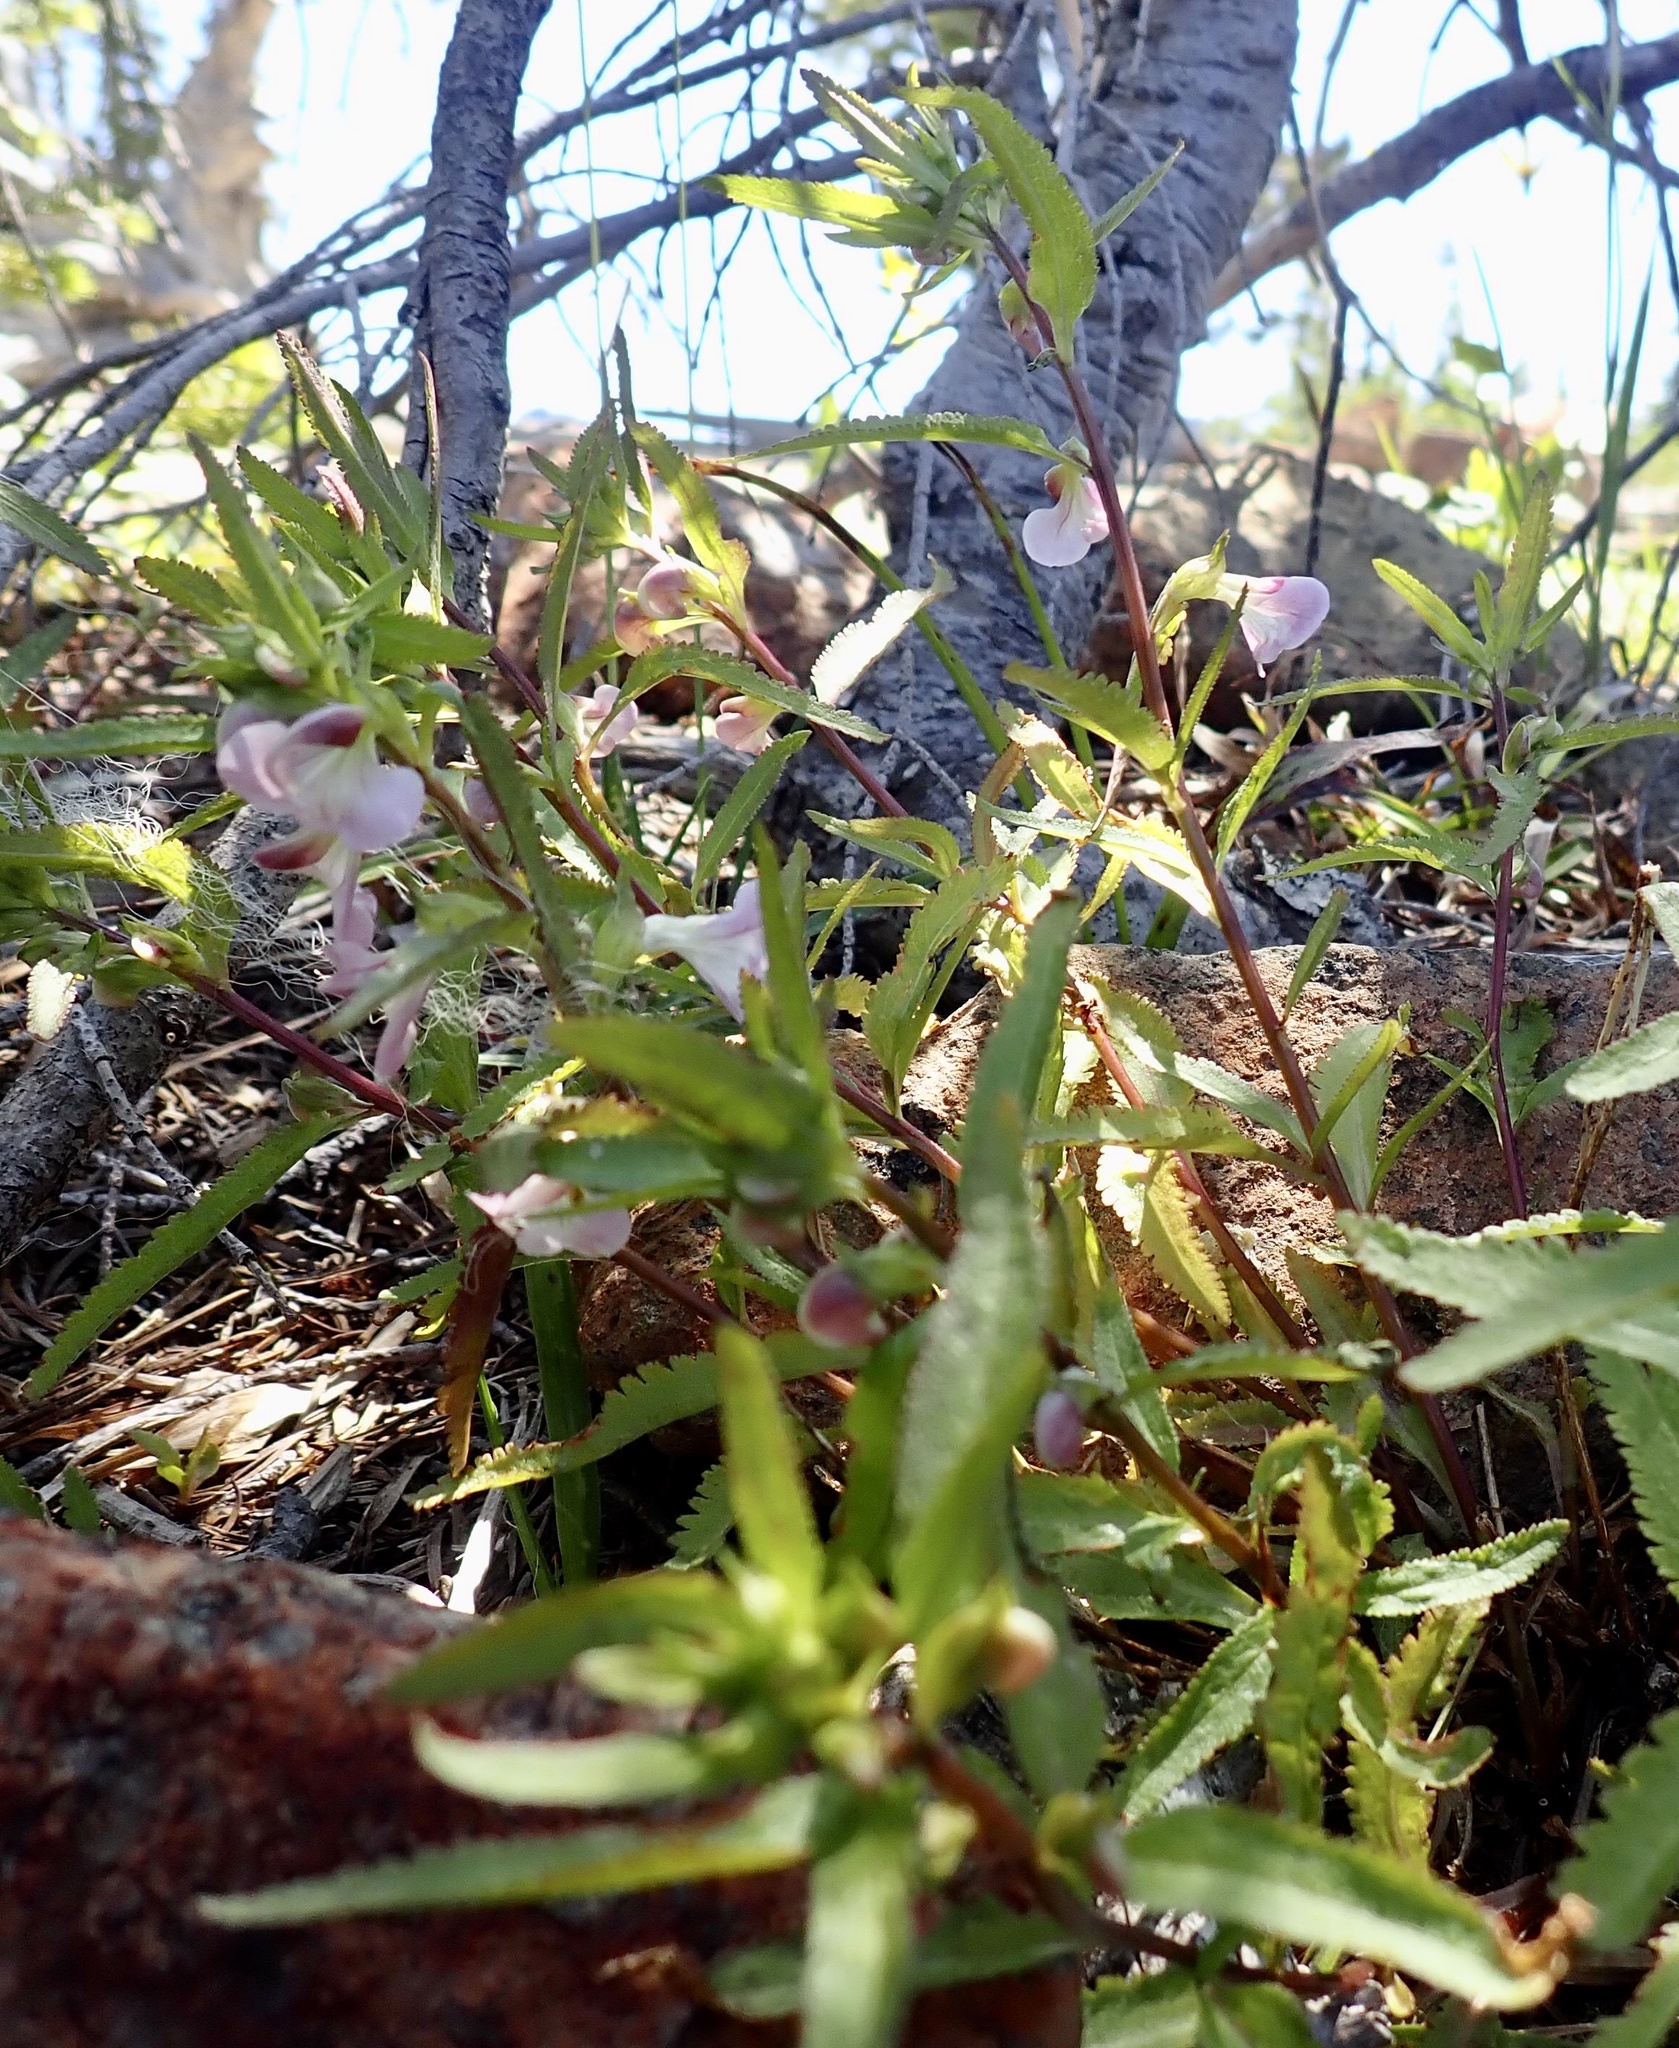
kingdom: Plantae
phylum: Tracheophyta
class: Magnoliopsida
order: Lamiales
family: Orobanchaceae
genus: Pedicularis
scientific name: Pedicularis racemosa
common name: Leafy lousewort
